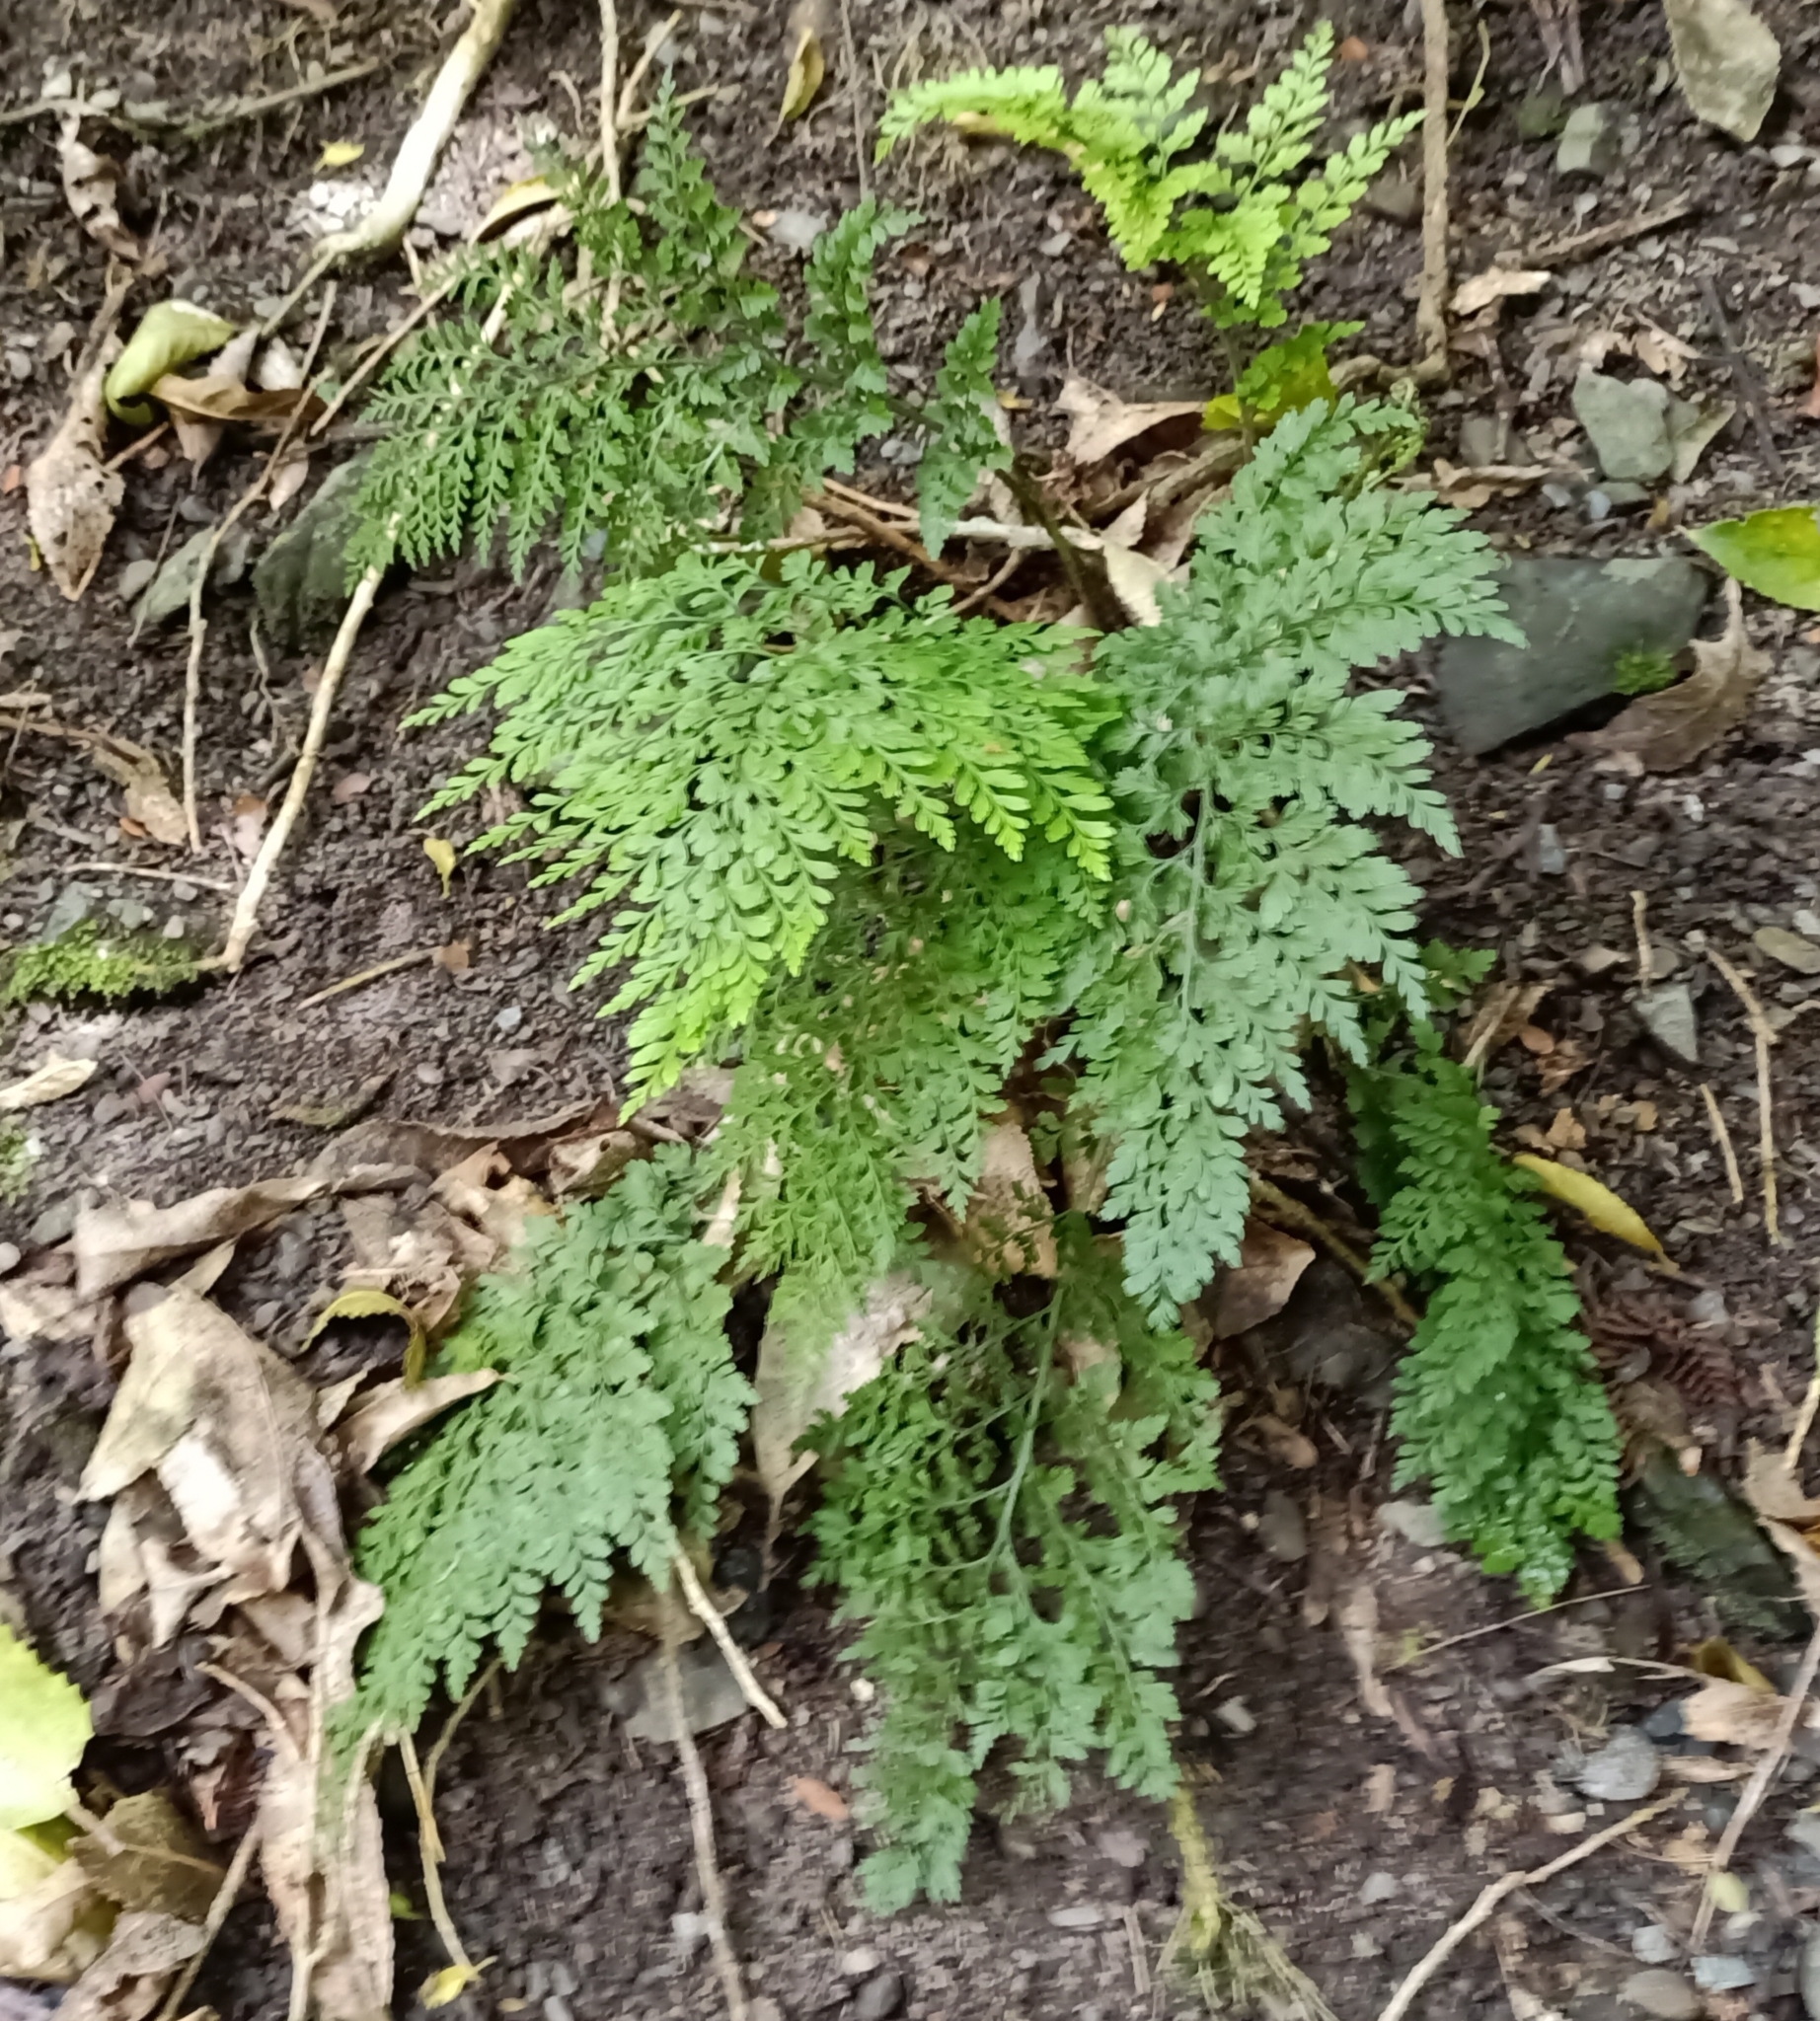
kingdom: Plantae
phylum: Tracheophyta
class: Polypodiopsida
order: Polypodiales
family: Aspleniaceae
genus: Asplenium
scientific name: Asplenium
